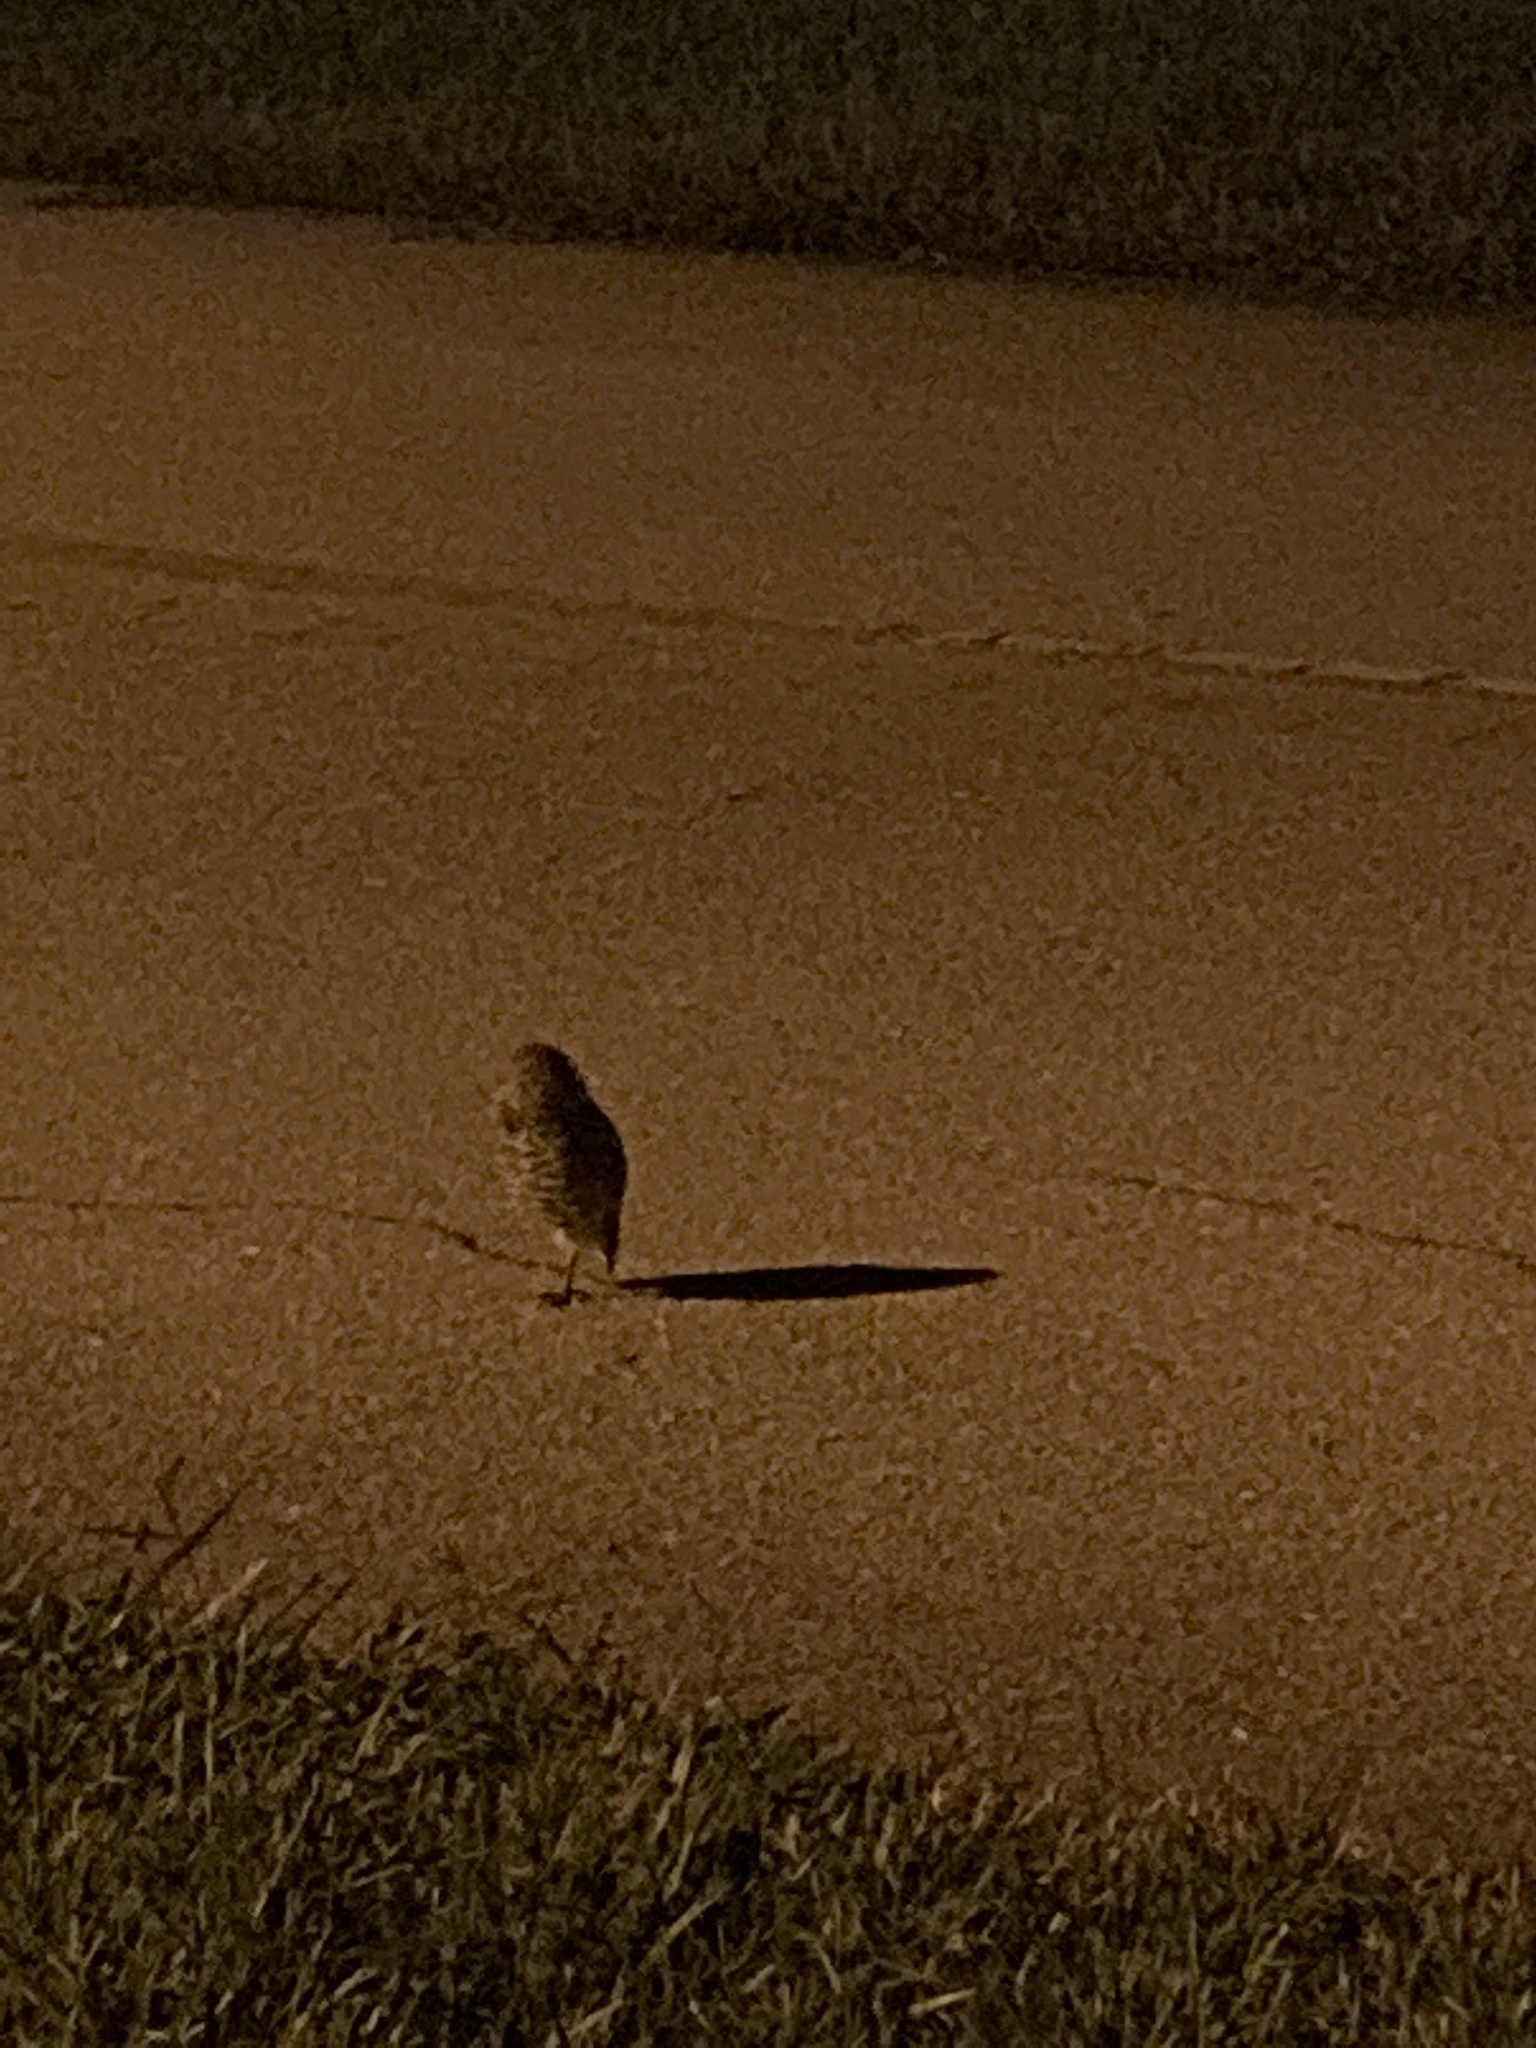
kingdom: Animalia
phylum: Chordata
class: Aves
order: Strigiformes
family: Strigidae
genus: Athene
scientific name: Athene cunicularia
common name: Burrowing owl
